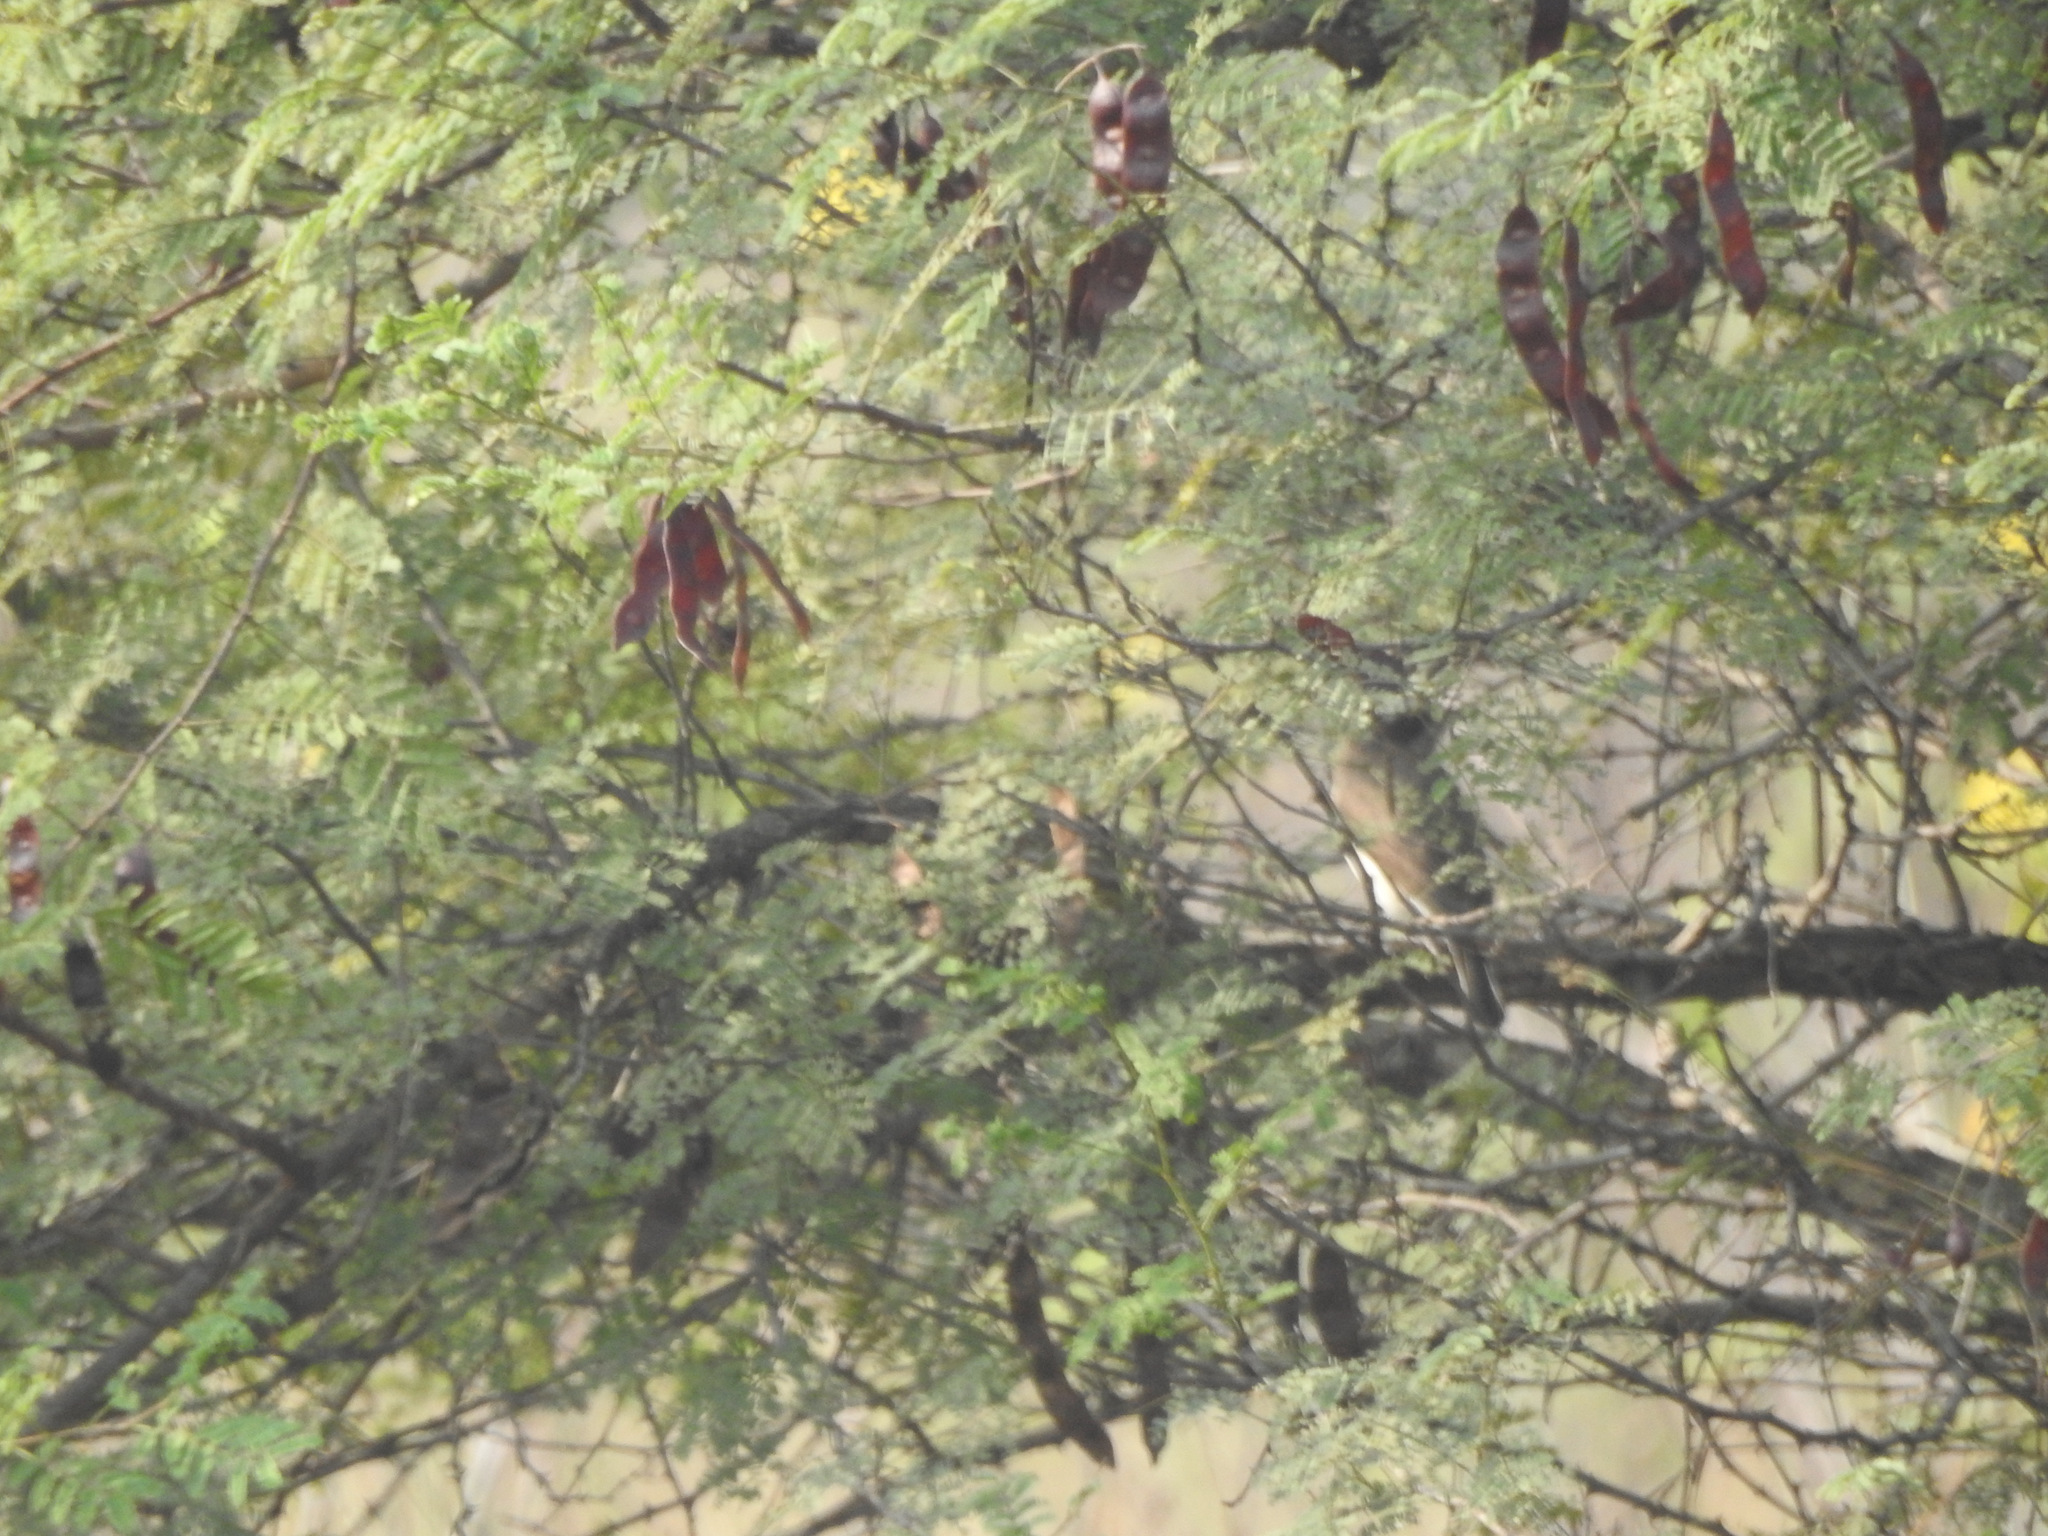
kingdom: Animalia
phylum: Chordata
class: Aves
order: Passeriformes
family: Tephrodornithidae
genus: Tephrodornis
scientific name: Tephrodornis pondicerianus
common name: Common woodshrike
